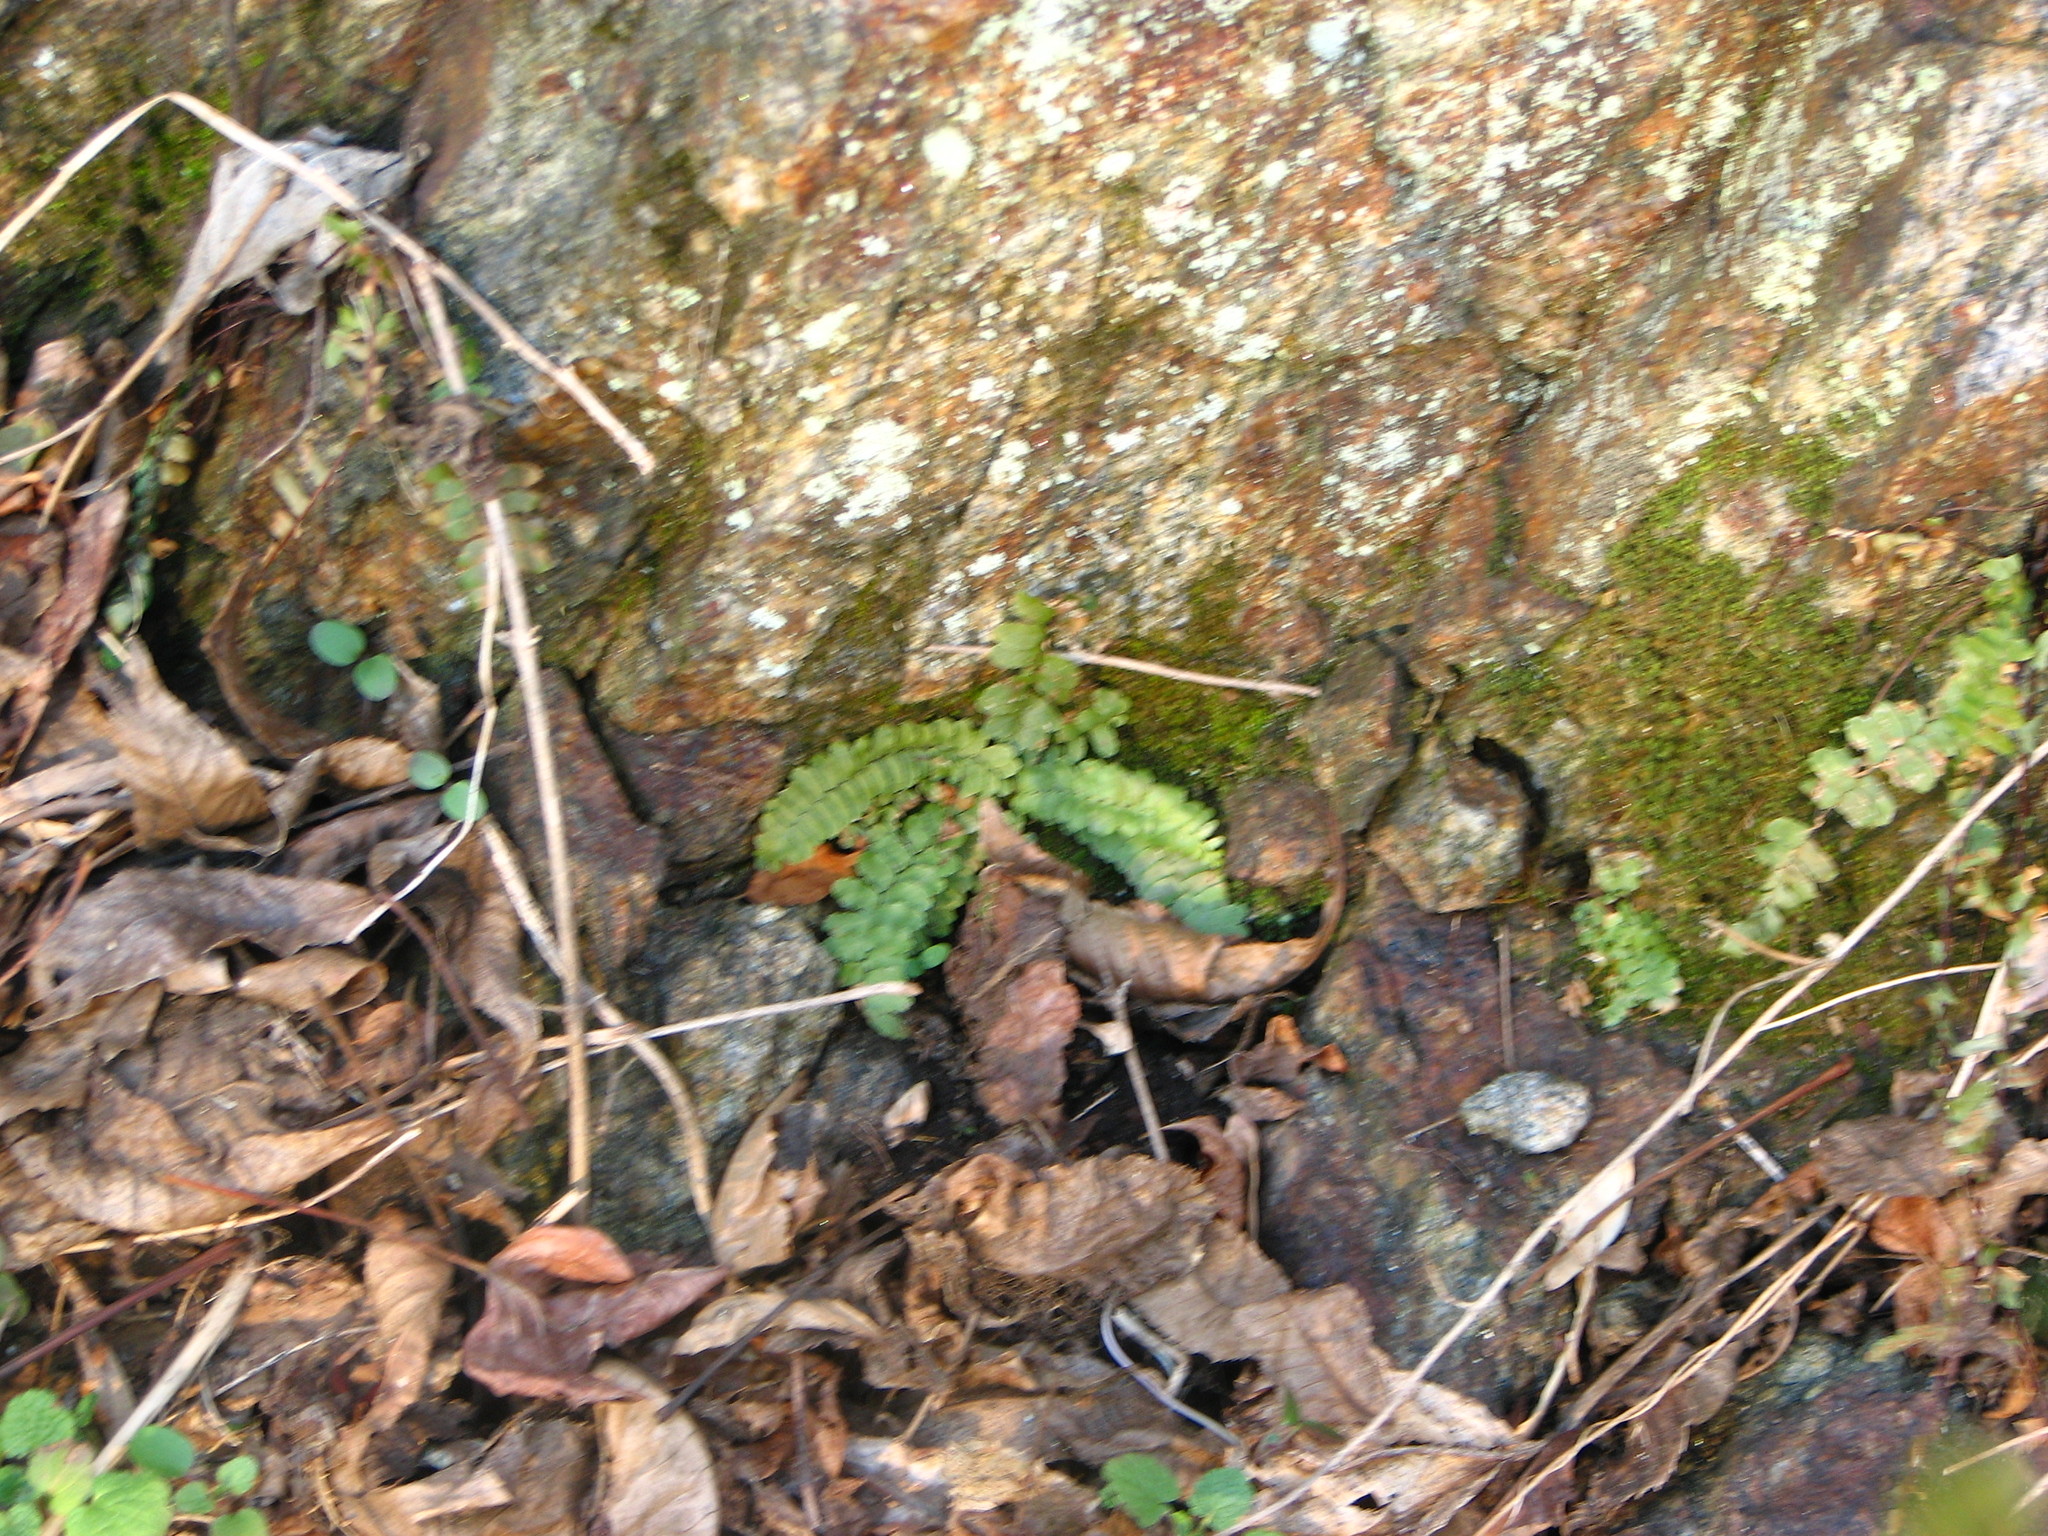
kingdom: Plantae
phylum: Tracheophyta
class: Polypodiopsida
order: Polypodiales
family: Aspleniaceae
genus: Asplenium
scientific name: Asplenium platyneuron
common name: Ebony spleenwort
